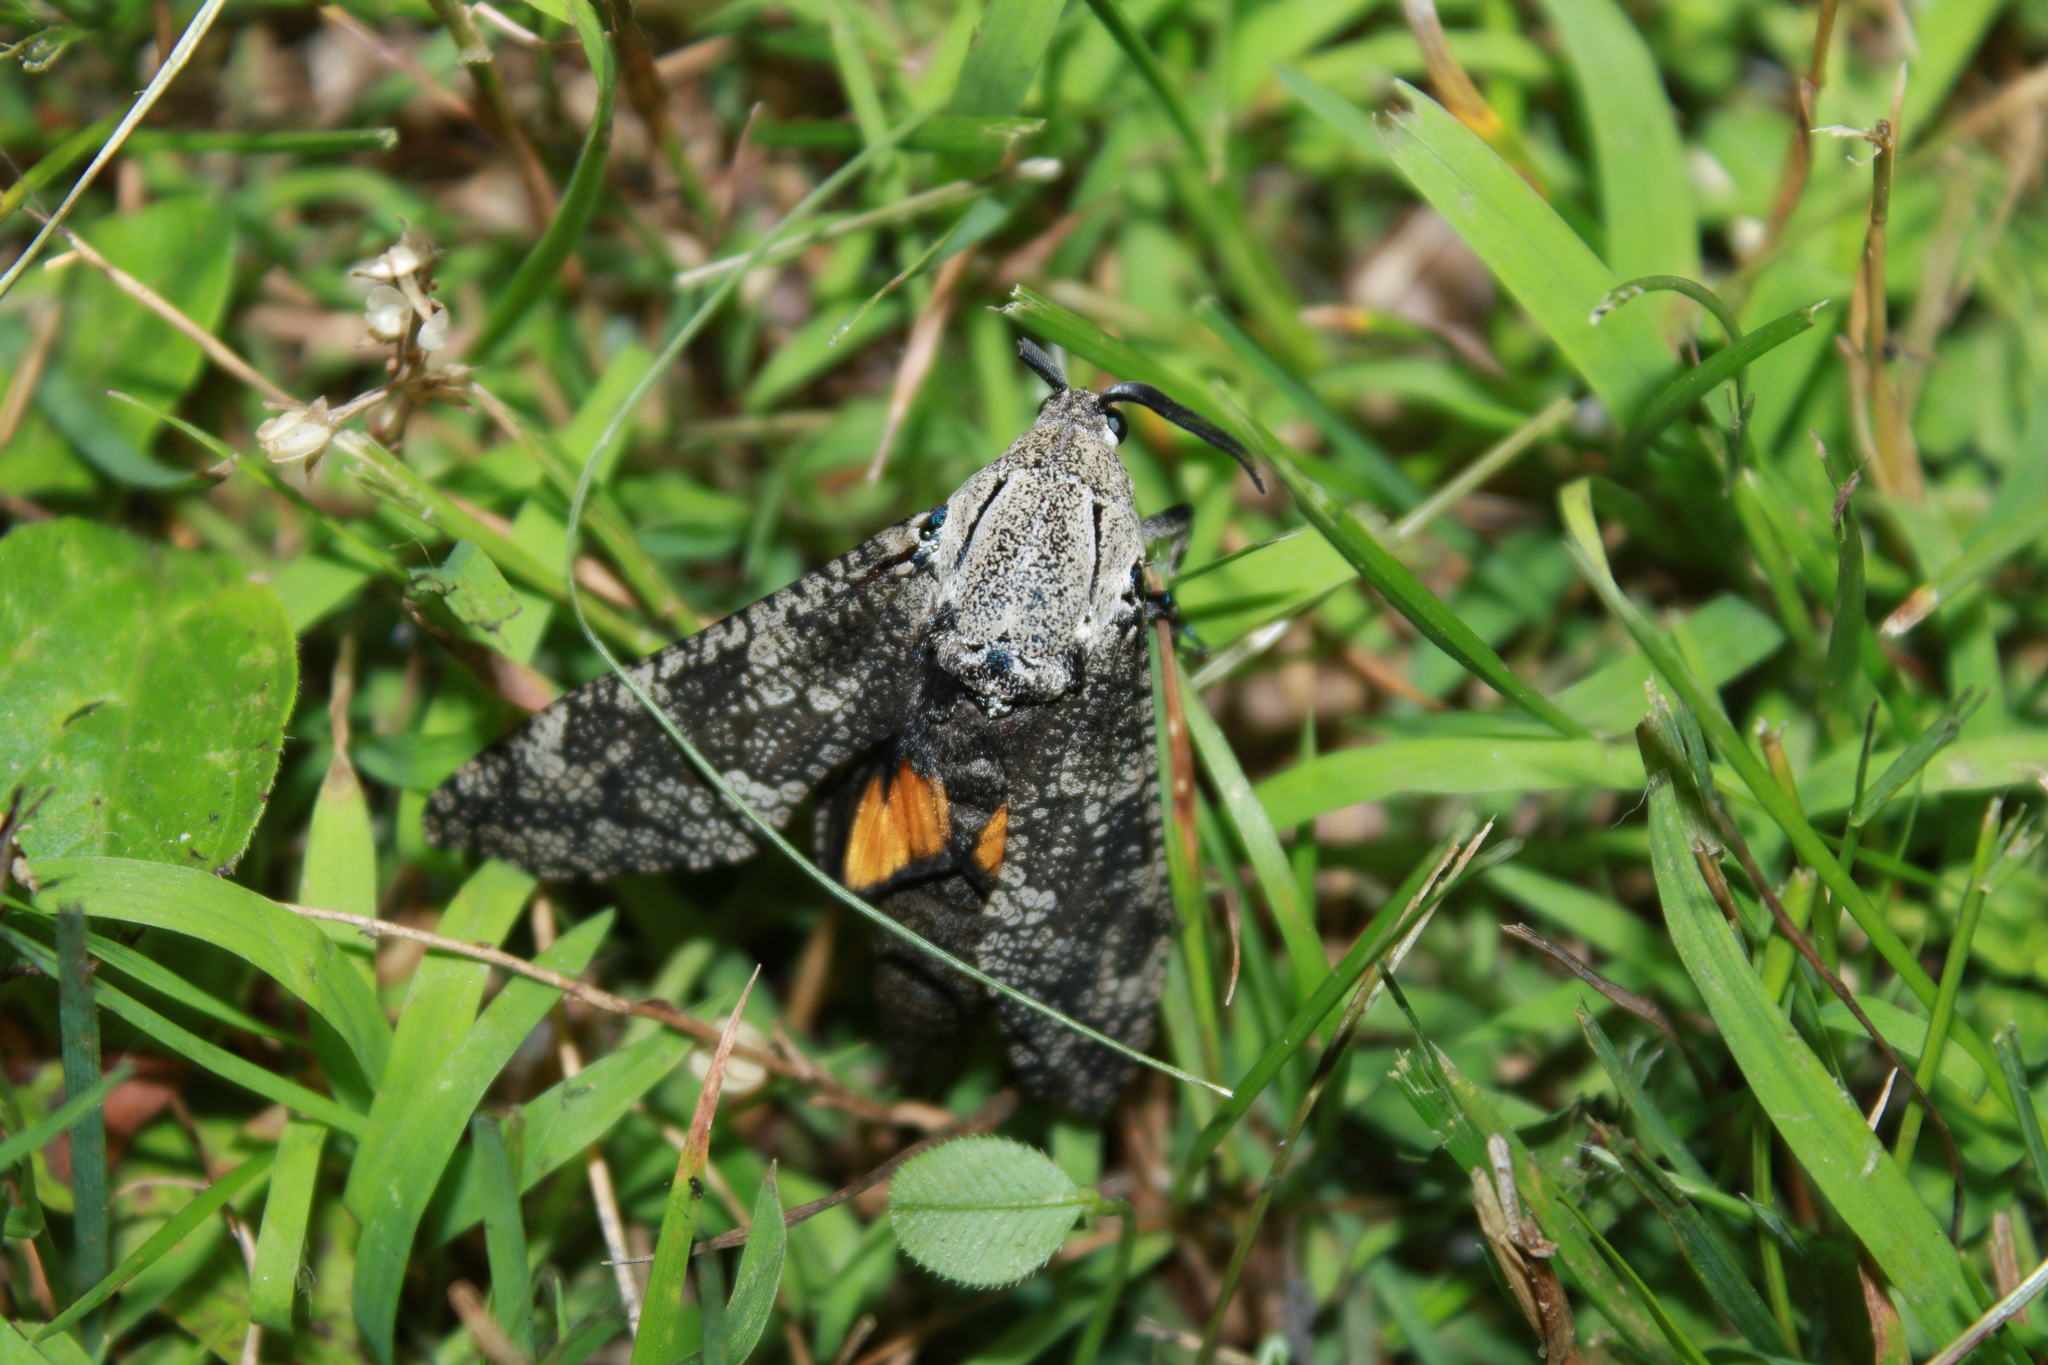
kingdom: Animalia
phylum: Arthropoda
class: Insecta
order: Lepidoptera
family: Cossidae
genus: Prionoxystus
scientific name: Prionoxystus robiniae
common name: Carpenterworm
